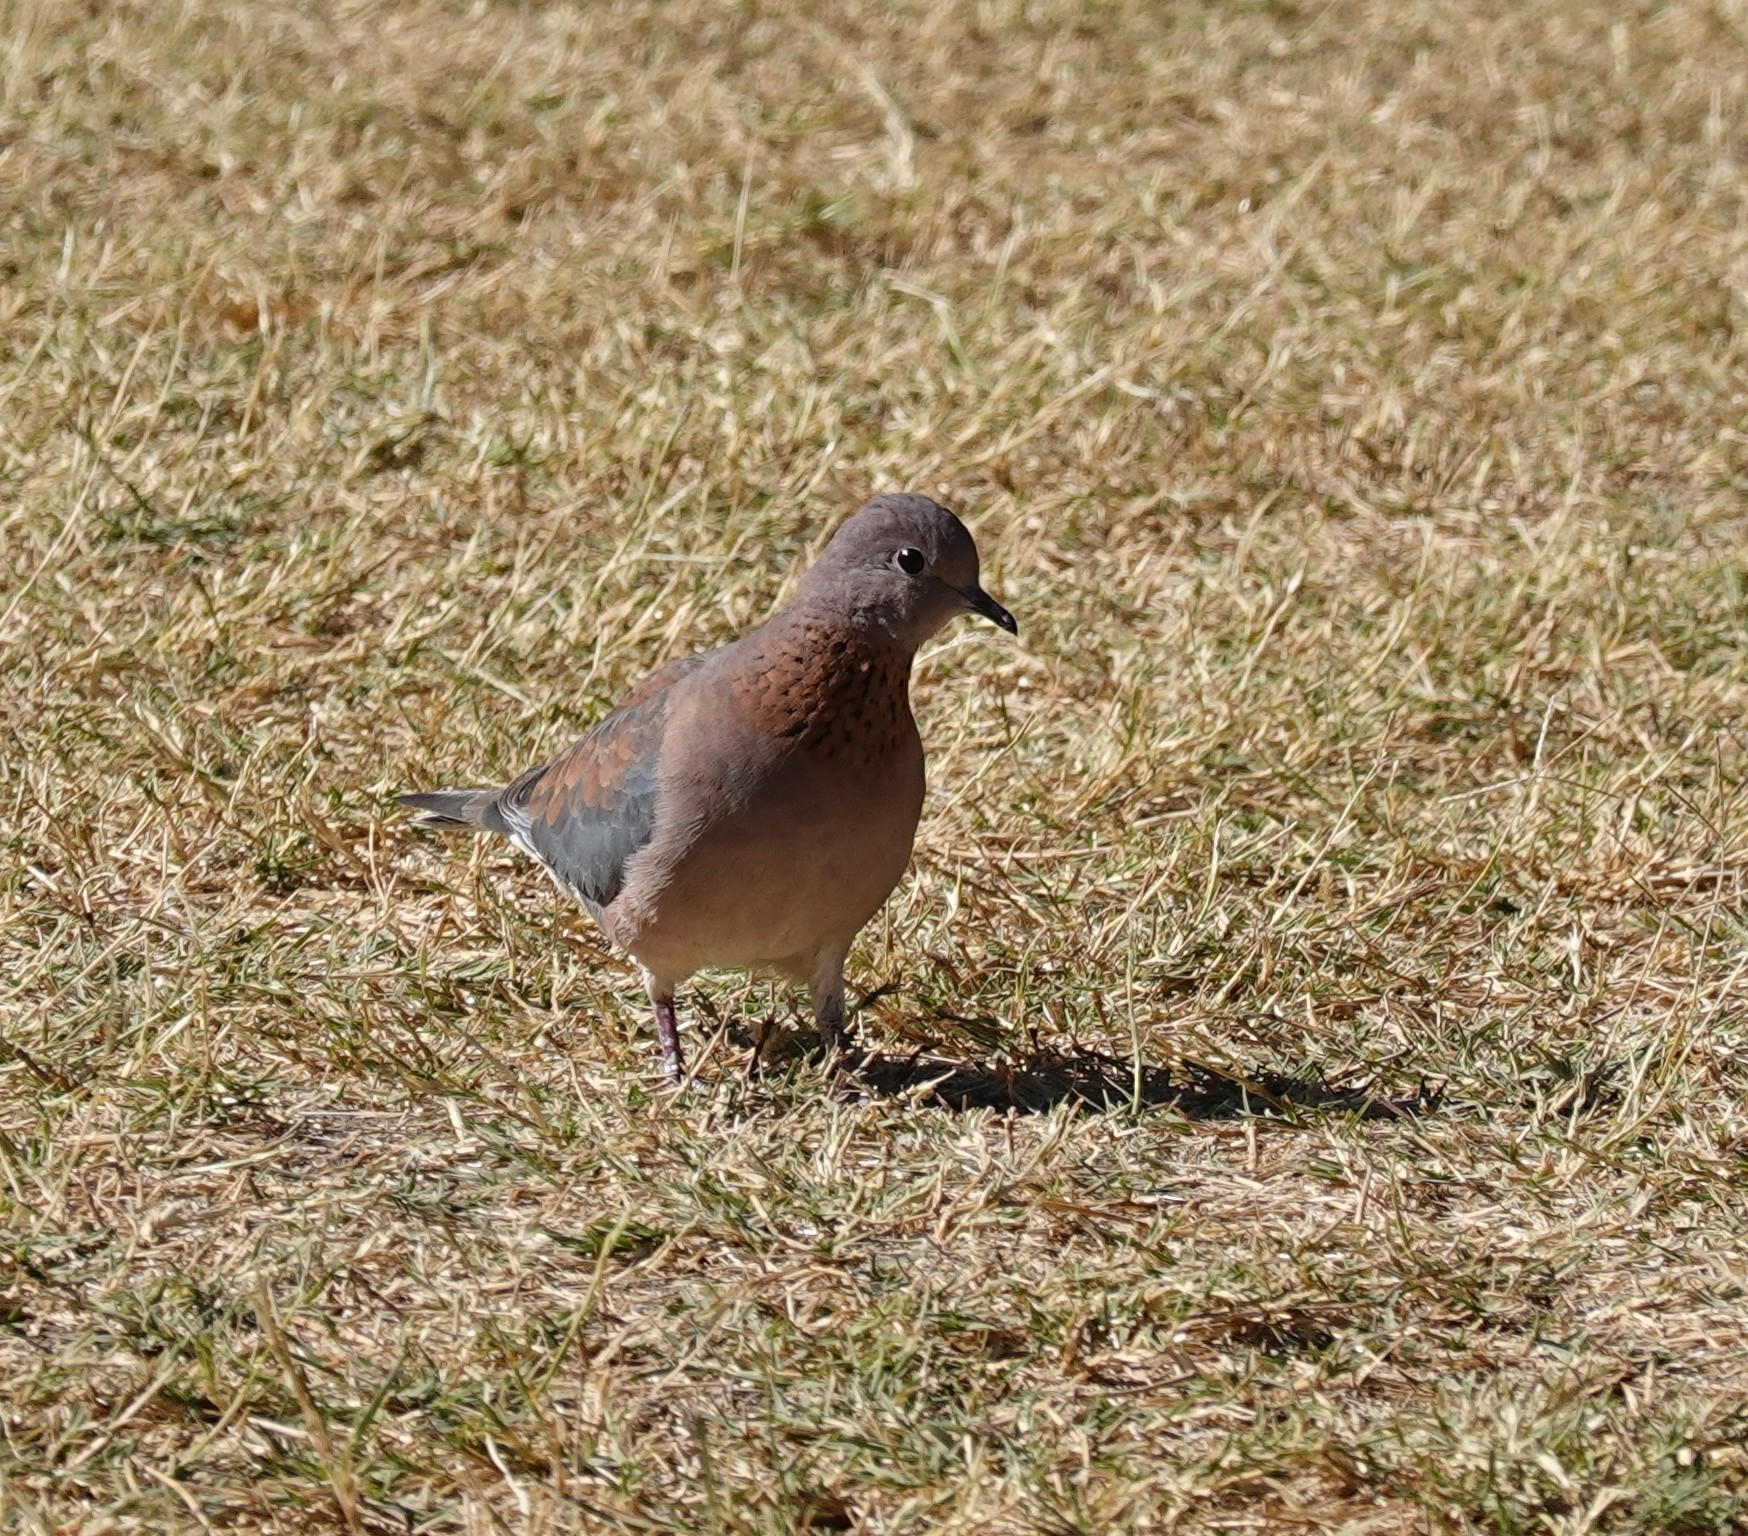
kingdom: Animalia
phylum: Chordata
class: Aves
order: Columbiformes
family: Columbidae
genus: Spilopelia
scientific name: Spilopelia senegalensis
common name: Laughing dove
